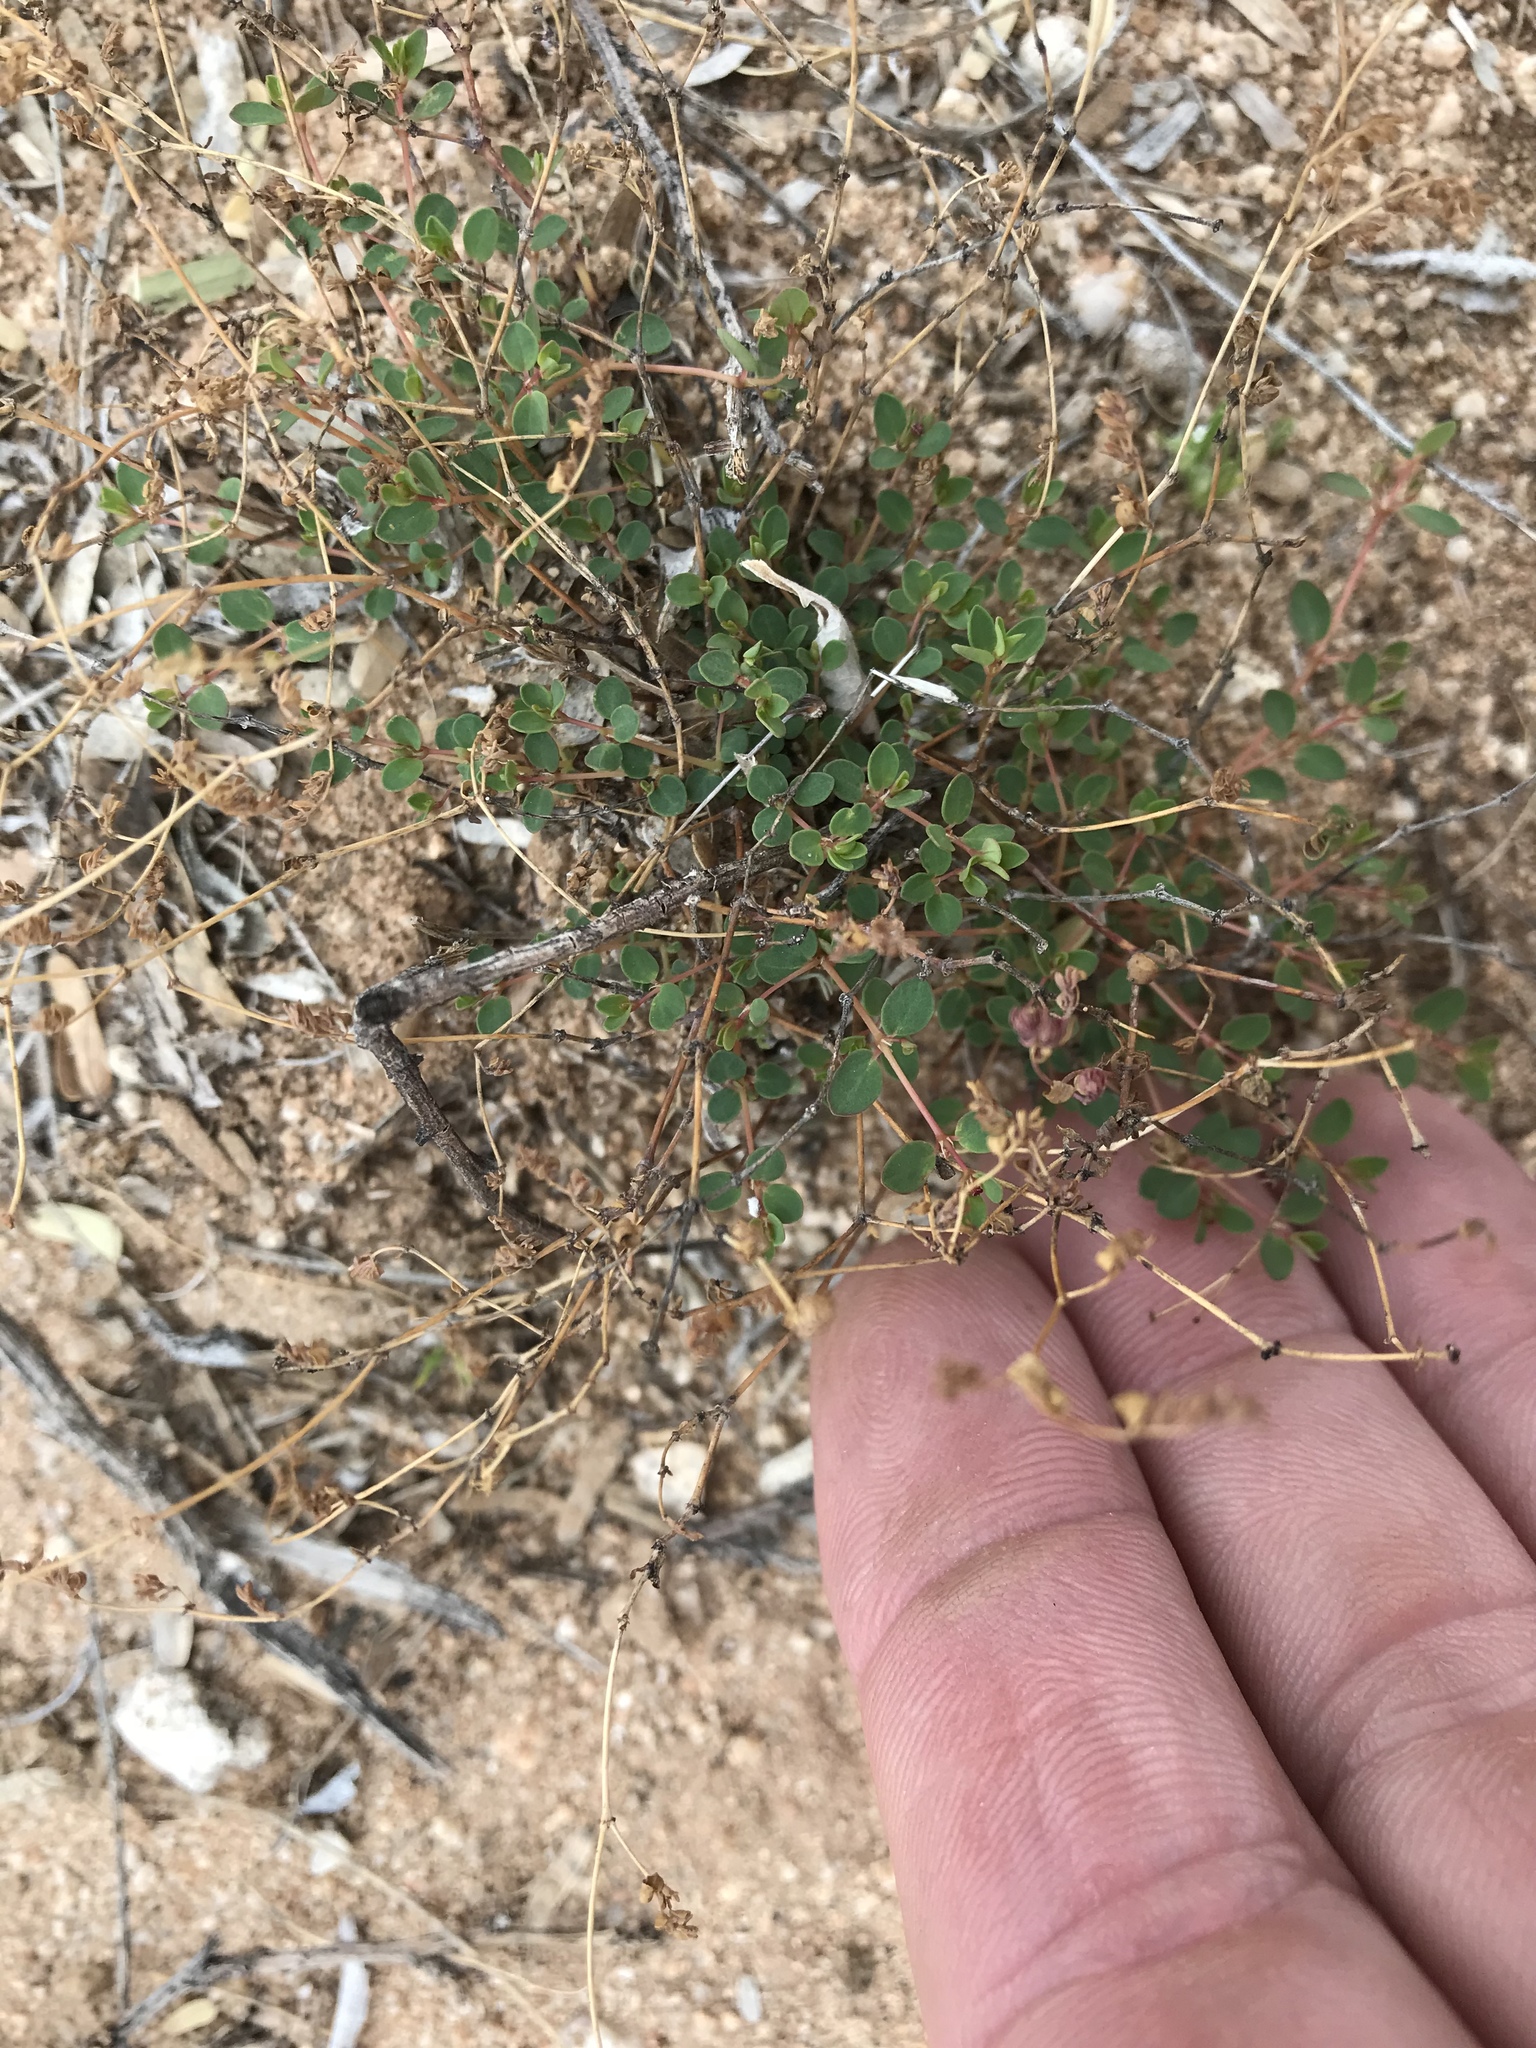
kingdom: Plantae
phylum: Tracheophyta
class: Magnoliopsida
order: Malpighiales
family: Euphorbiaceae
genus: Euphorbia
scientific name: Euphorbia polycarpa
